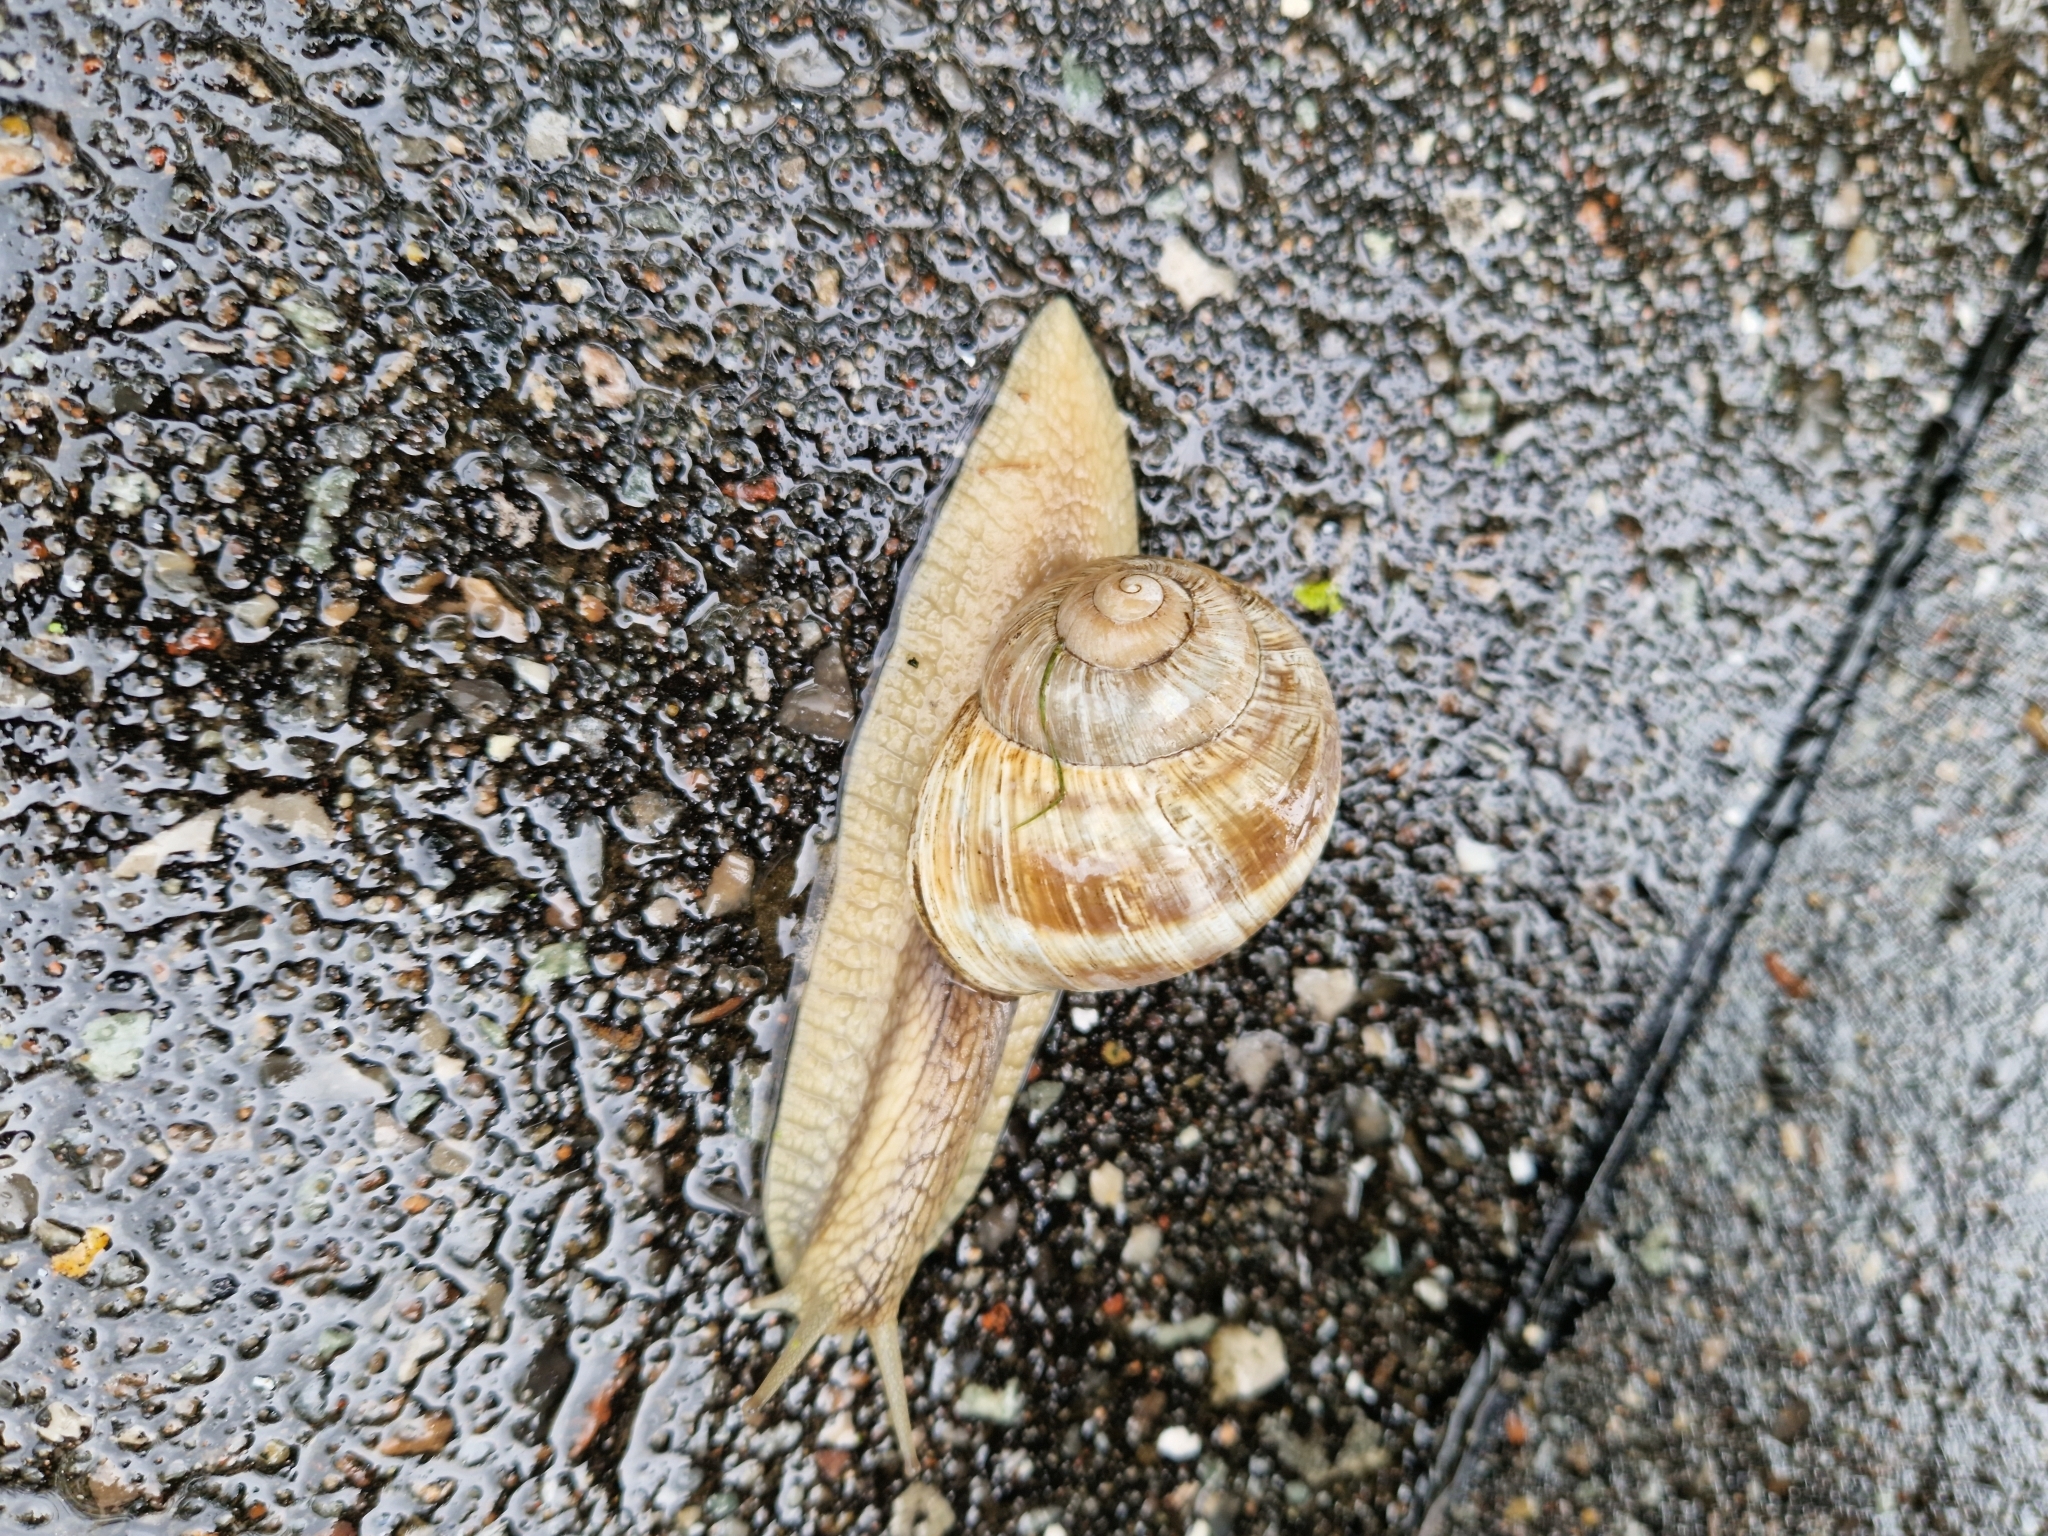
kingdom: Animalia
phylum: Mollusca
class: Gastropoda
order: Stylommatophora
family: Helicidae
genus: Helix
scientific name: Helix pomatia
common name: Roman snail
